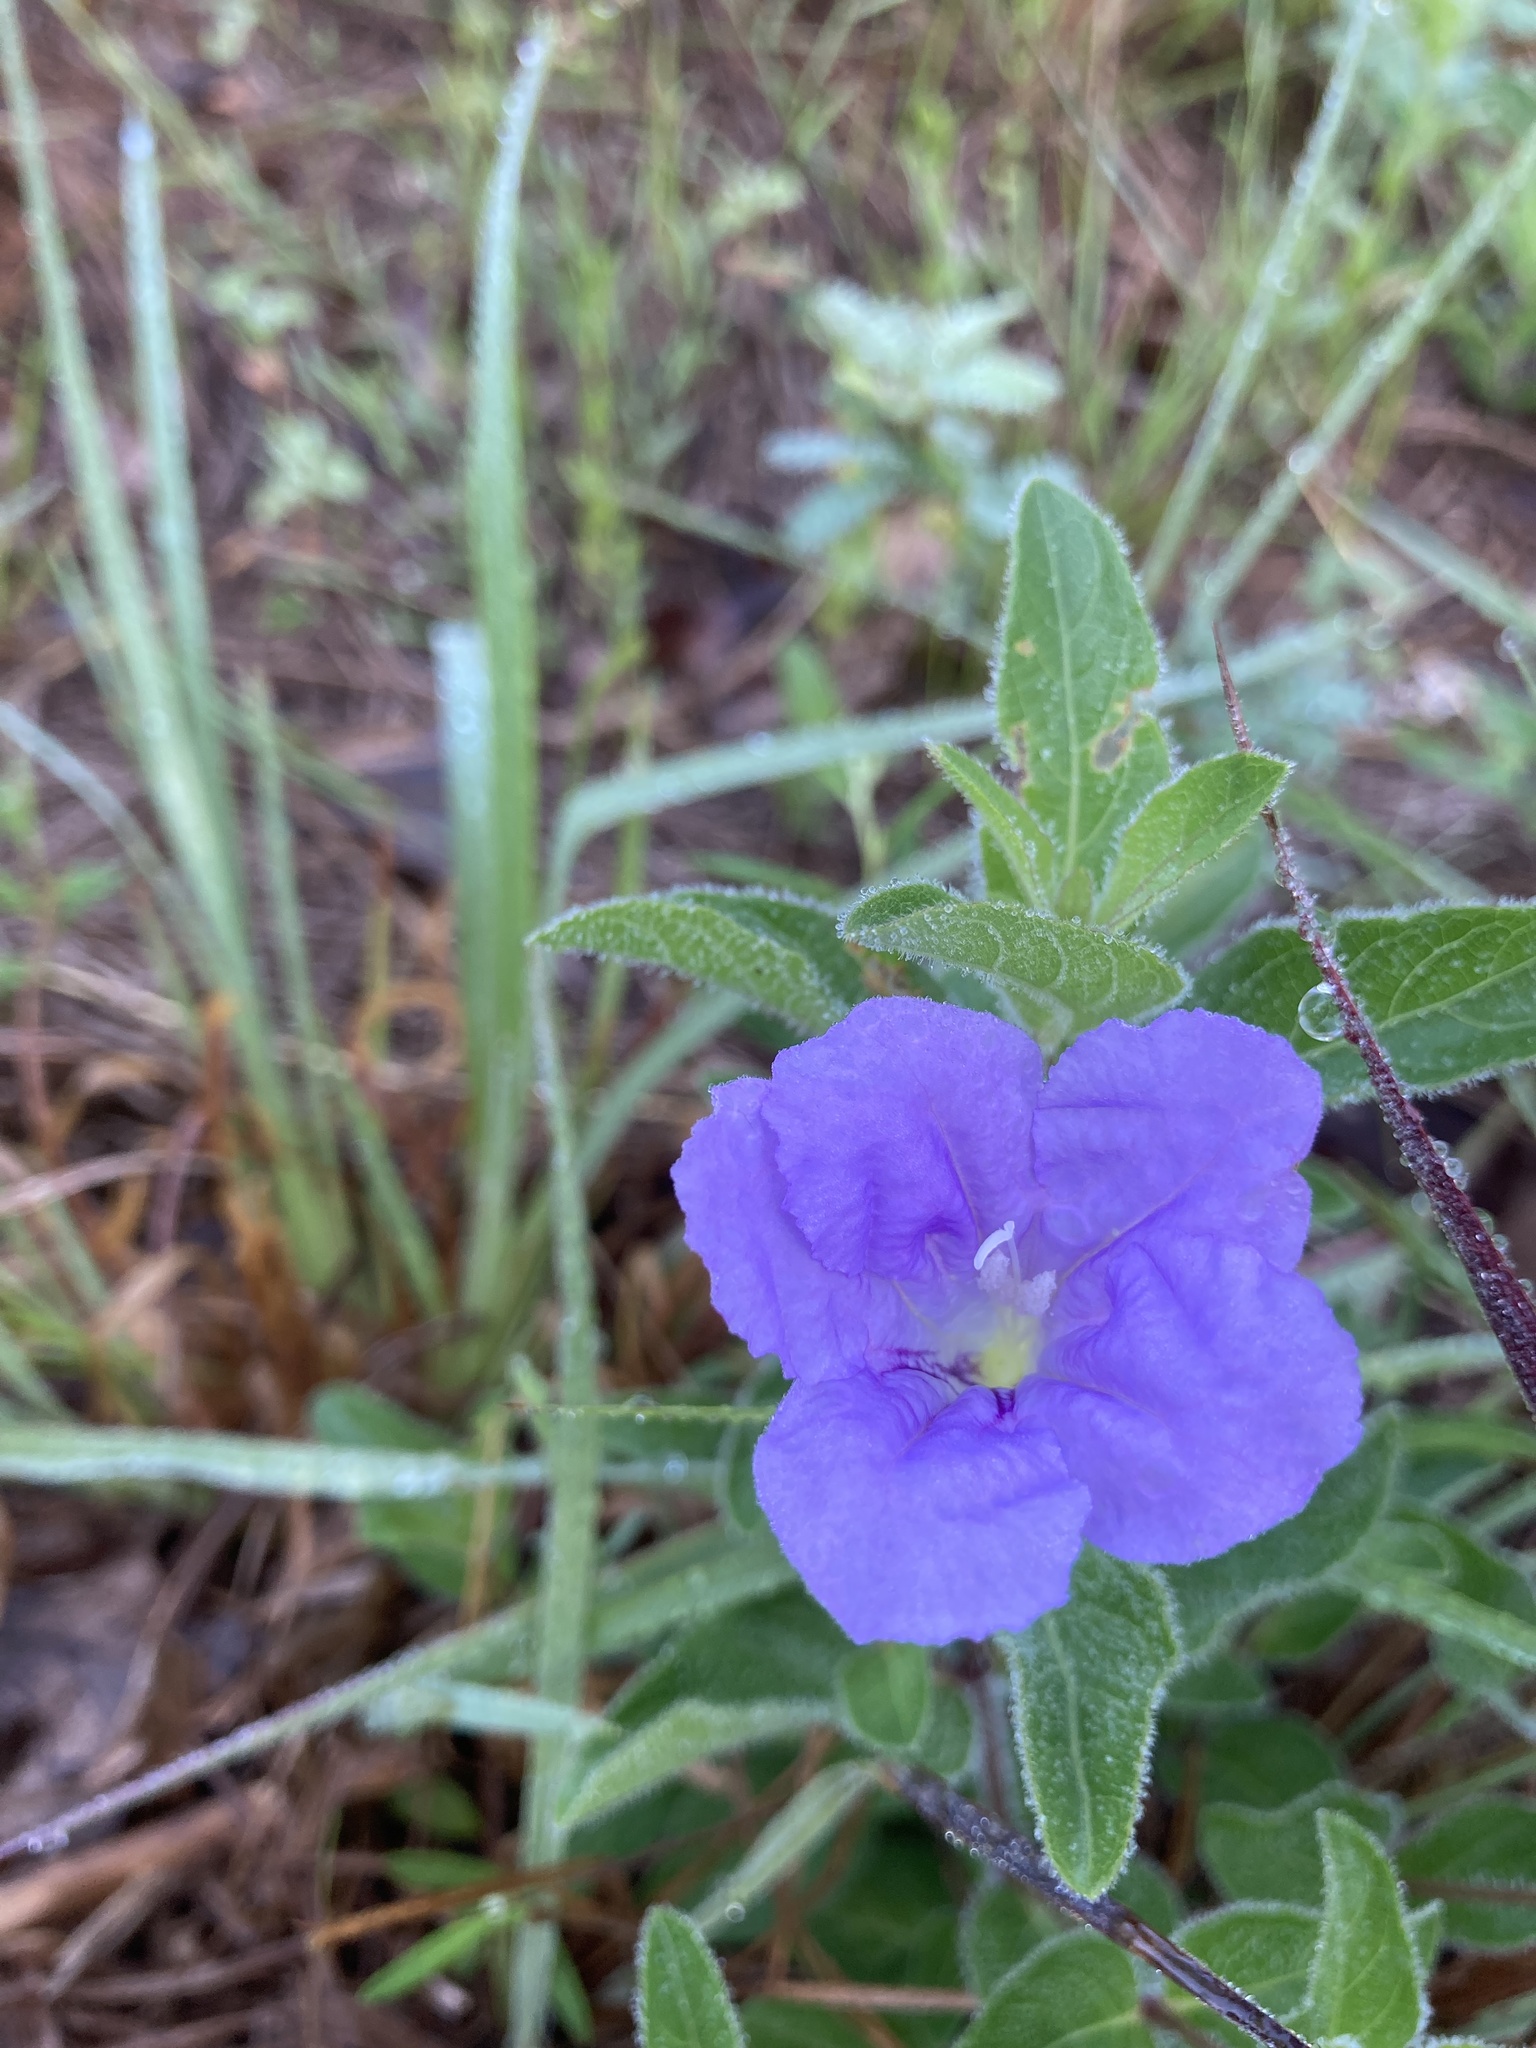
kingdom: Plantae
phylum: Tracheophyta
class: Magnoliopsida
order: Lamiales
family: Acanthaceae
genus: Ruellia
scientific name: Ruellia humilis
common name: Fringe-leaf ruellia
